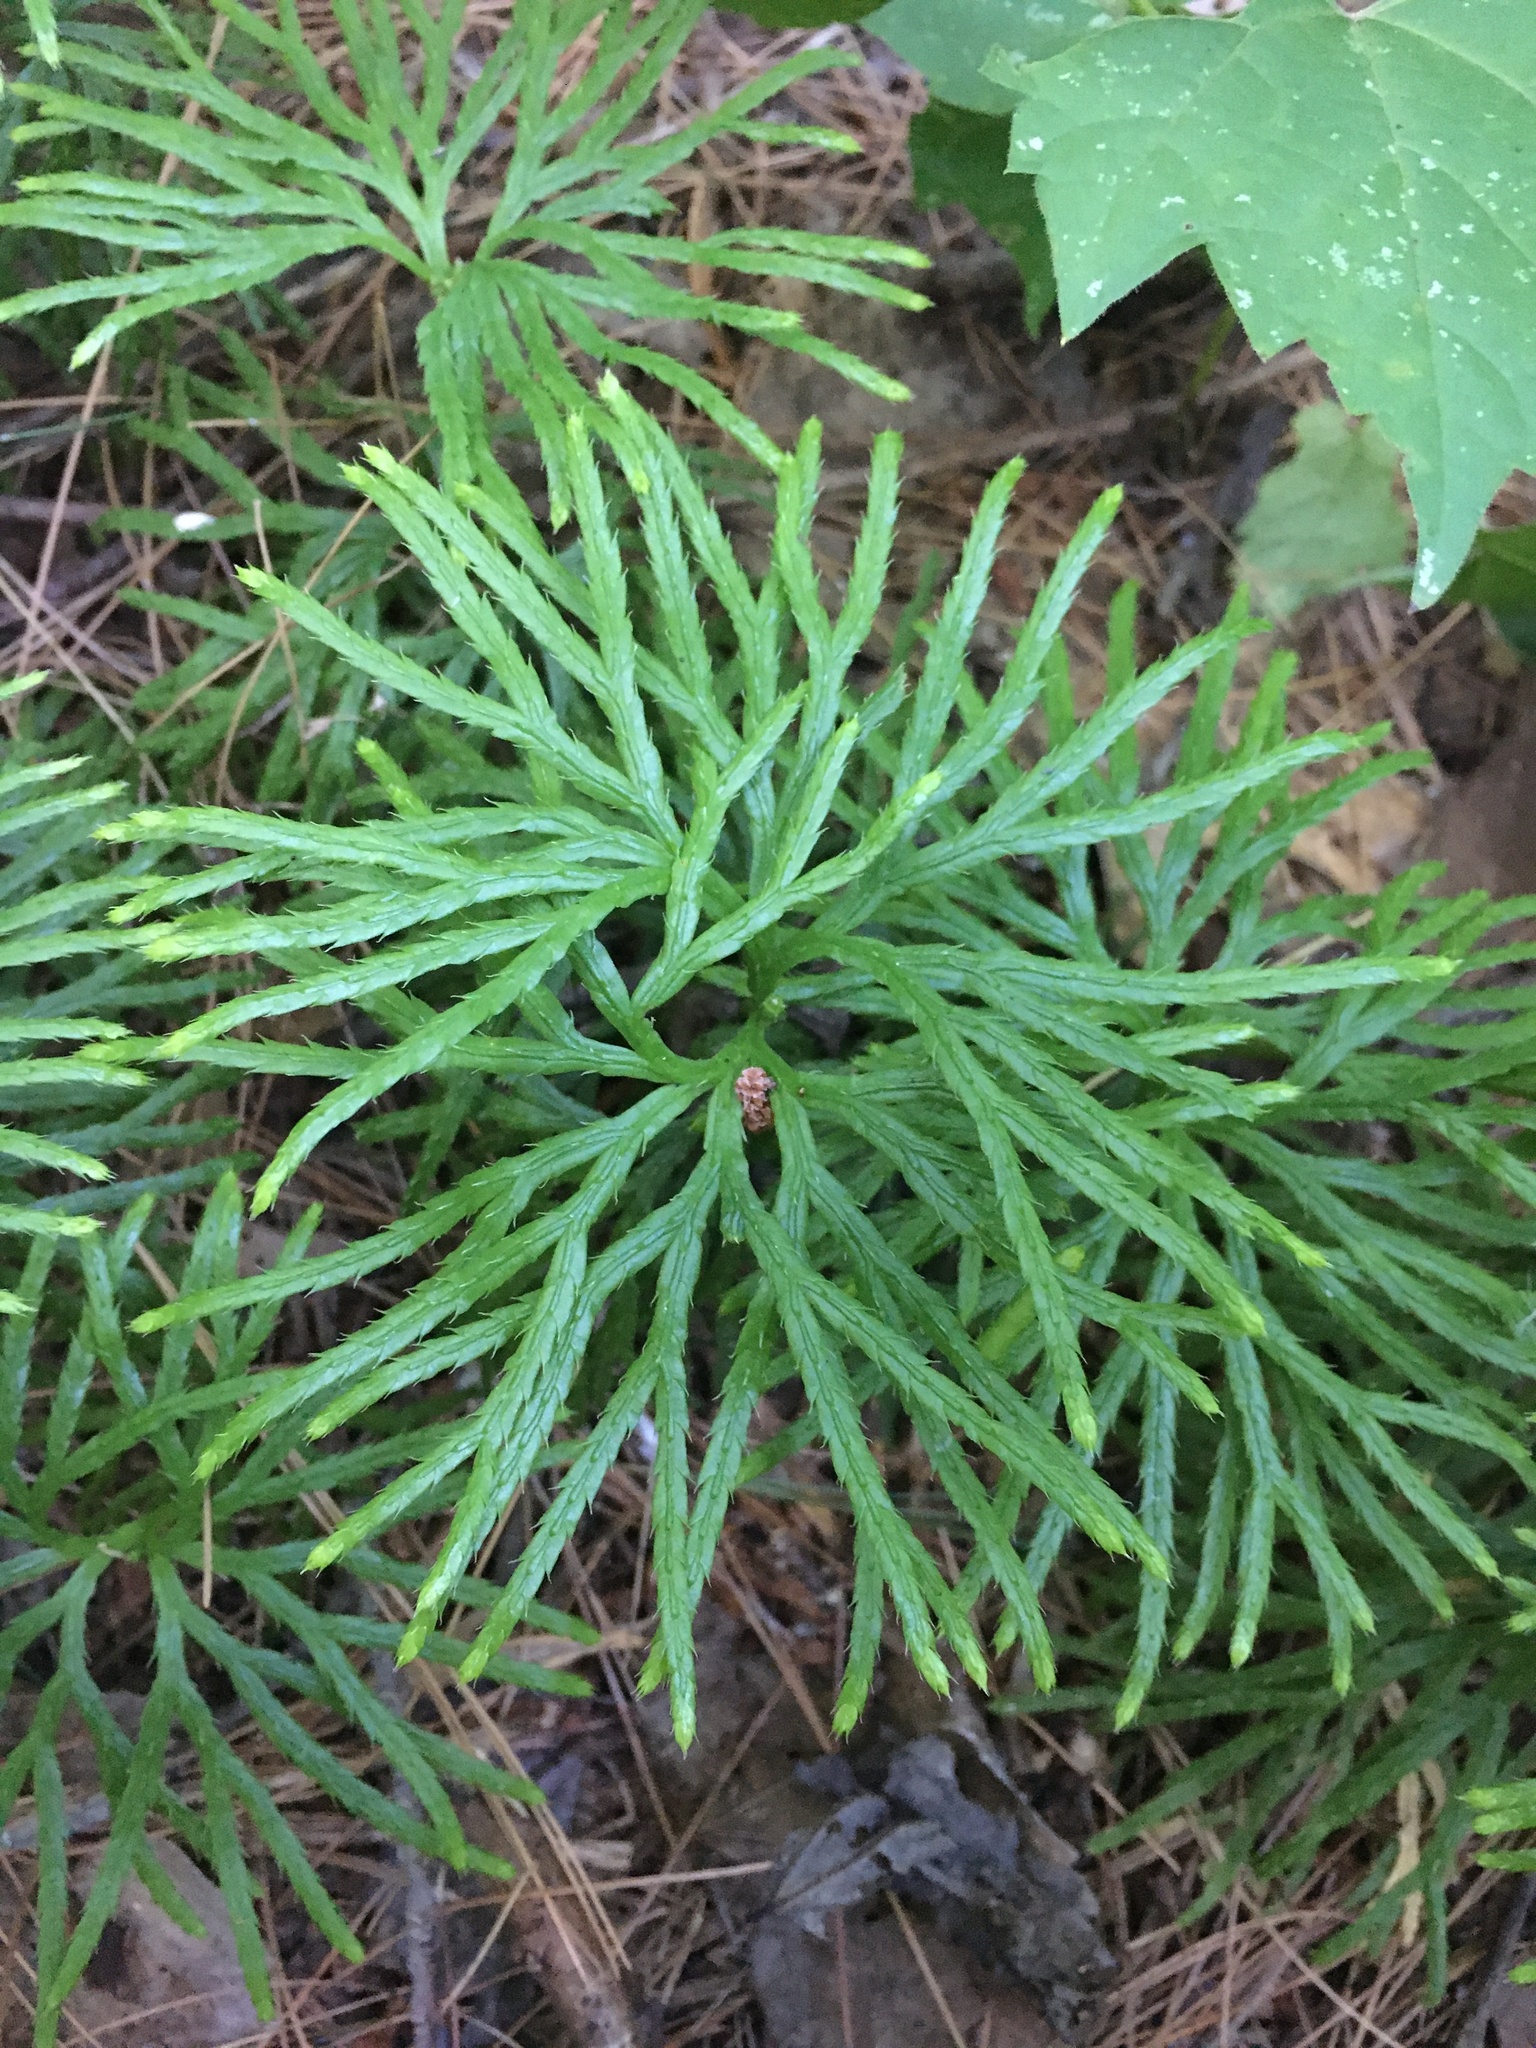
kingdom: Plantae
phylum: Tracheophyta
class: Lycopodiopsida
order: Lycopodiales
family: Lycopodiaceae
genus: Diphasiastrum
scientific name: Diphasiastrum digitatum
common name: Southern running-pine
